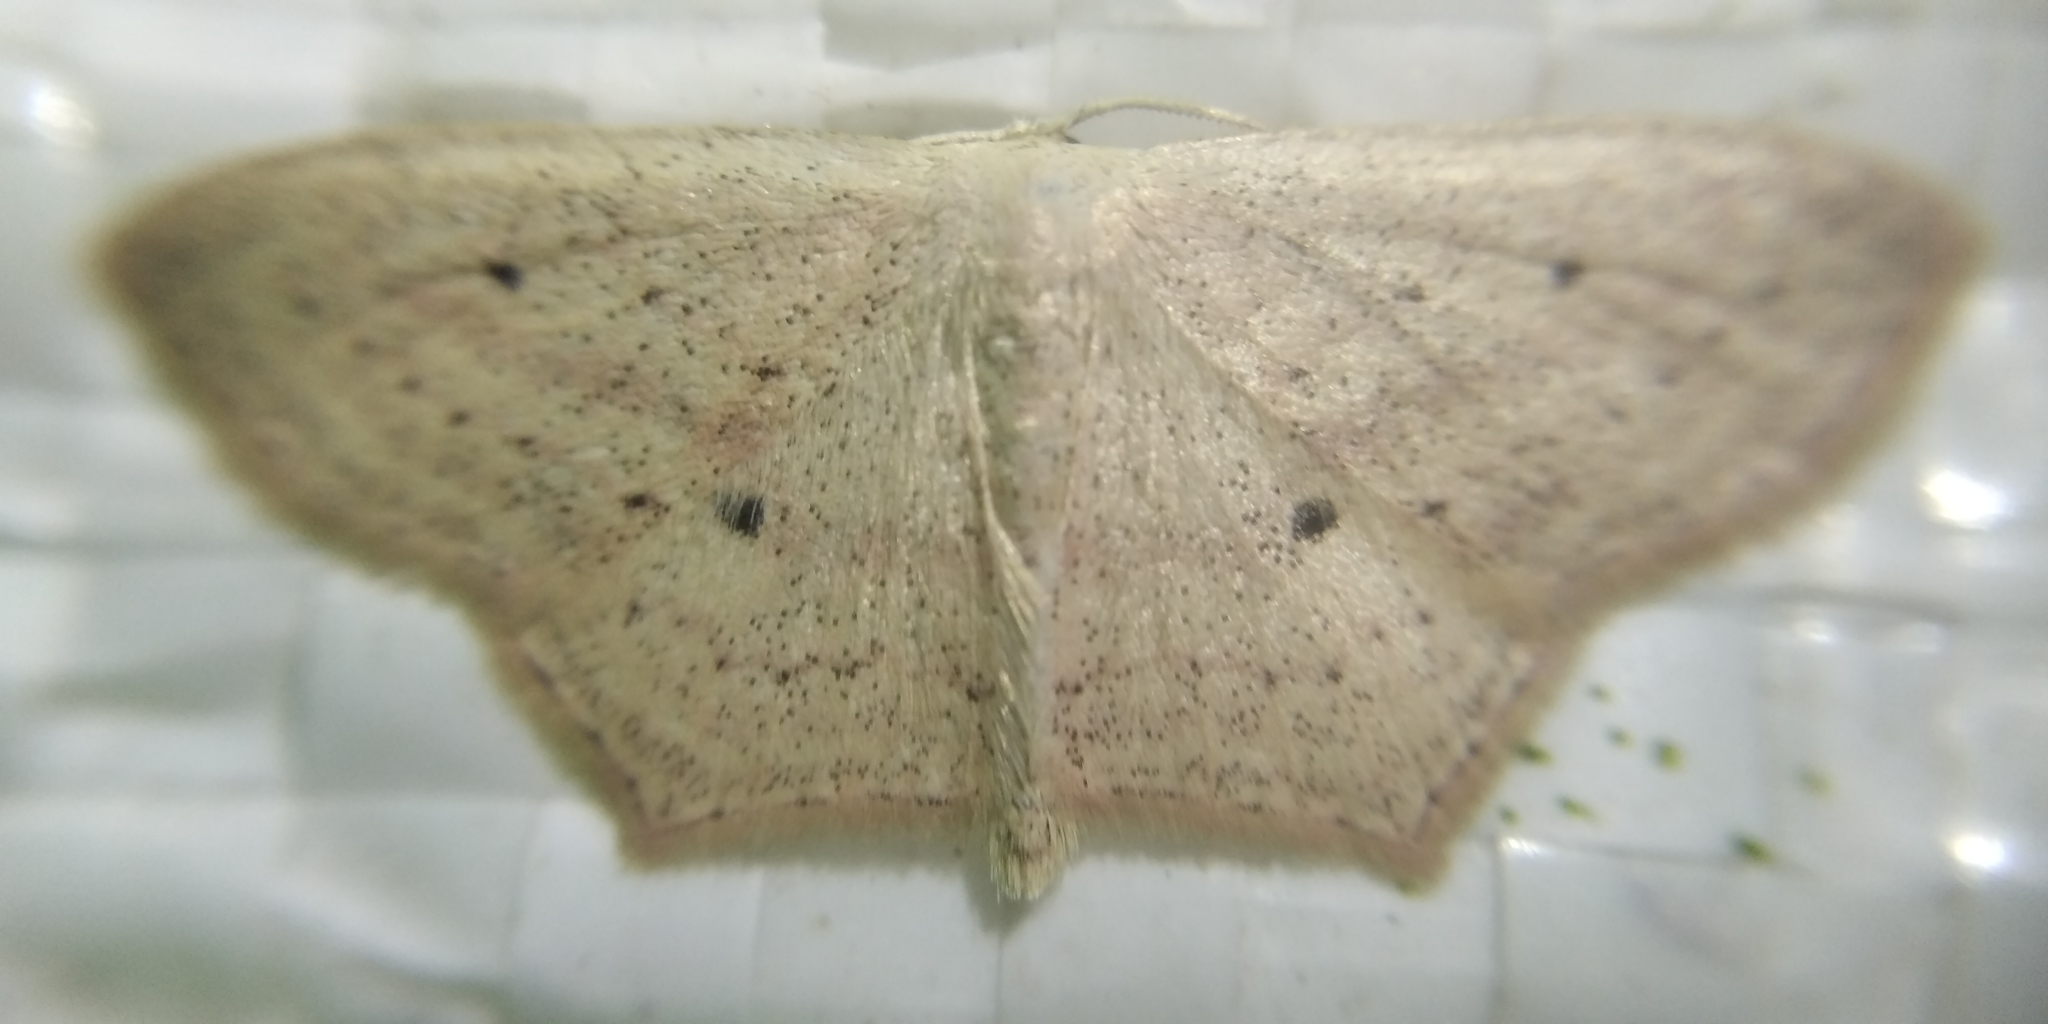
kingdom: Animalia
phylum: Arthropoda
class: Insecta
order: Lepidoptera
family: Geometridae
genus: Scopula
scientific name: Scopula flaccidaria
